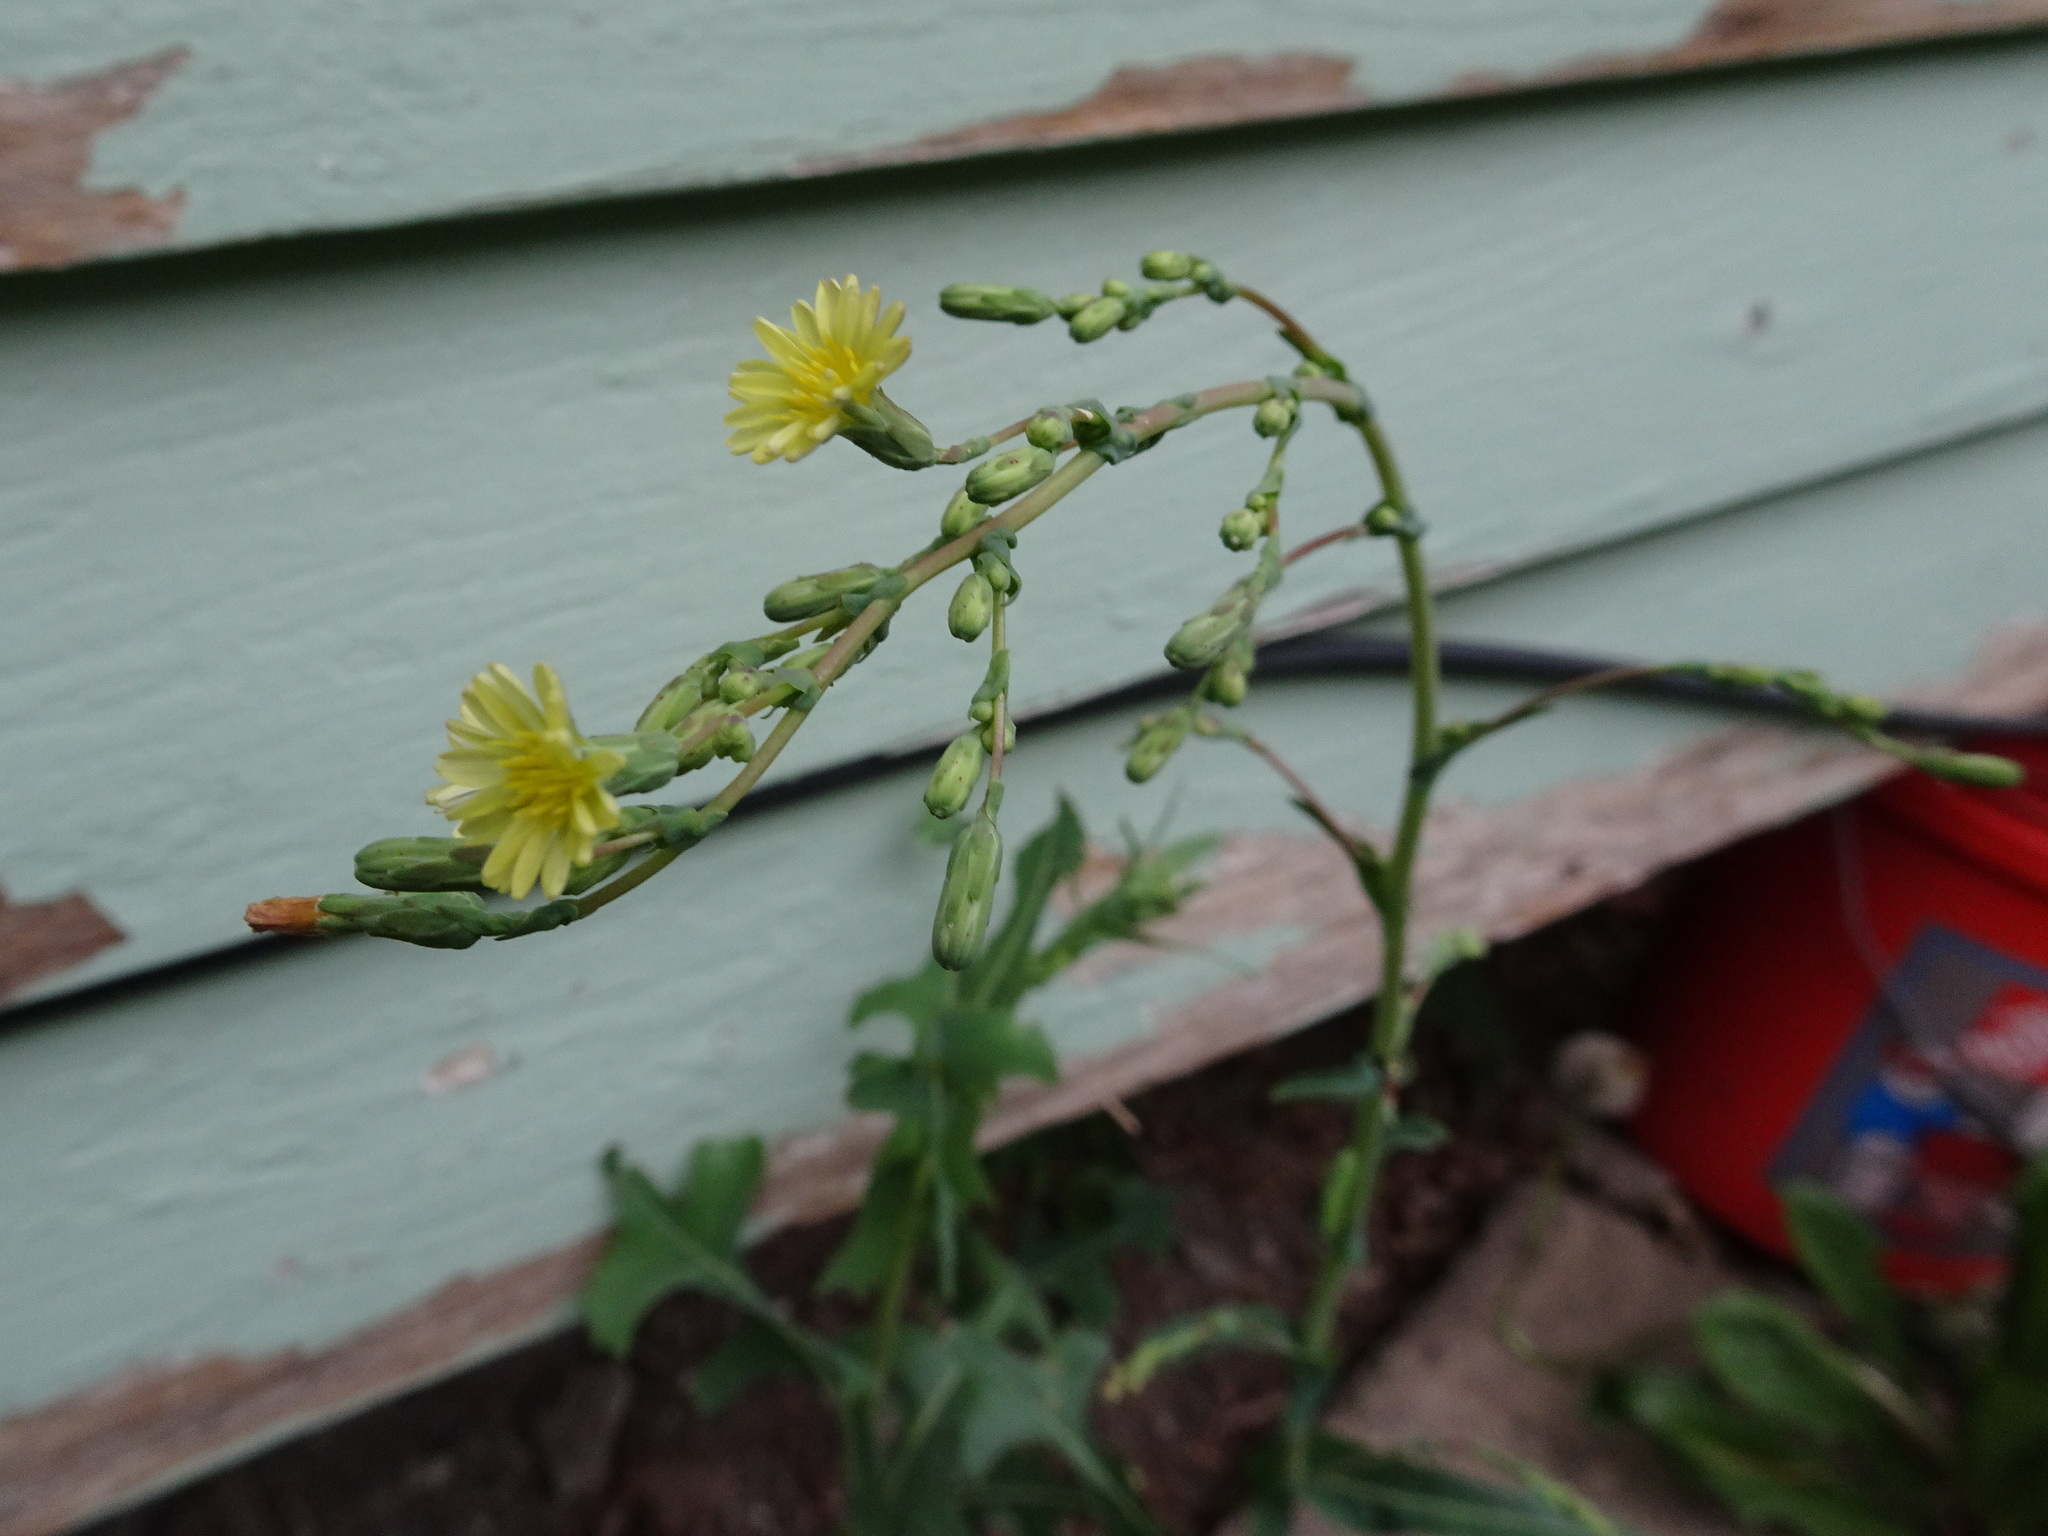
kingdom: Plantae
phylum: Tracheophyta
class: Magnoliopsida
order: Asterales
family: Asteraceae
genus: Lactuca
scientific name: Lactuca serriola
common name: Prickly lettuce
